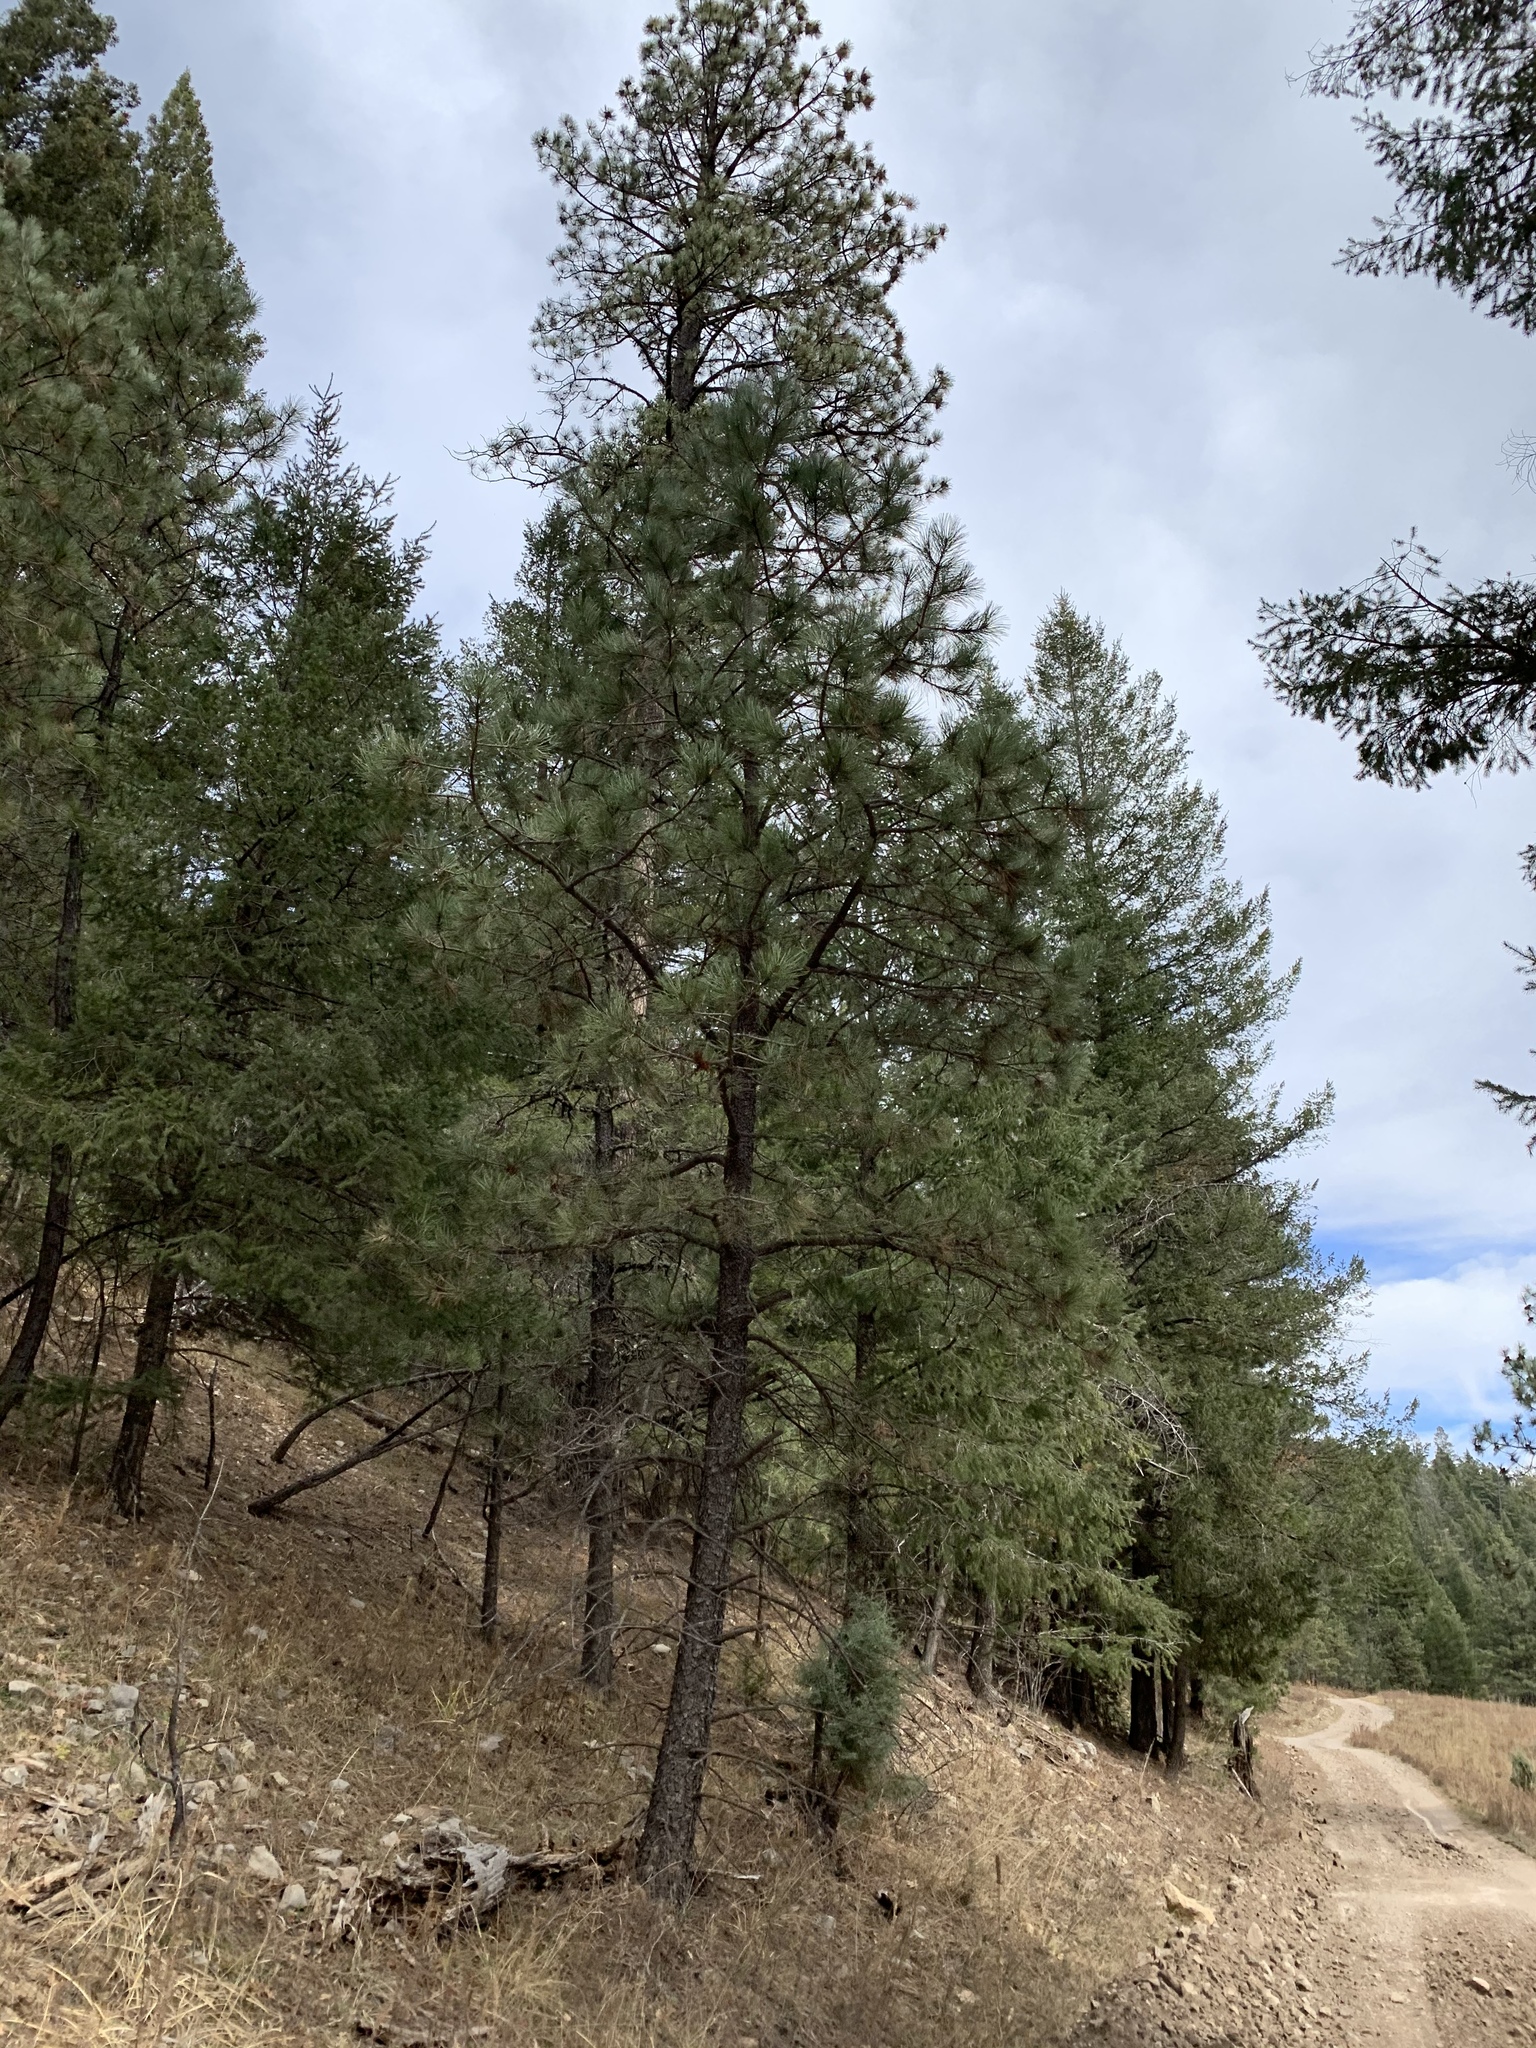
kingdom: Plantae
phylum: Tracheophyta
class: Pinopsida
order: Pinales
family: Pinaceae
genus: Pinus
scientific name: Pinus ponderosa
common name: Western yellow-pine
